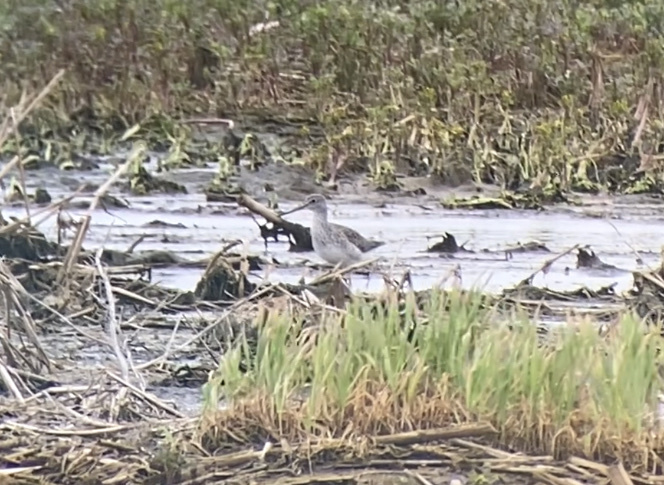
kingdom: Animalia
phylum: Chordata
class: Aves
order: Charadriiformes
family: Scolopacidae
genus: Tringa
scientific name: Tringa melanoleuca
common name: Greater yellowlegs
